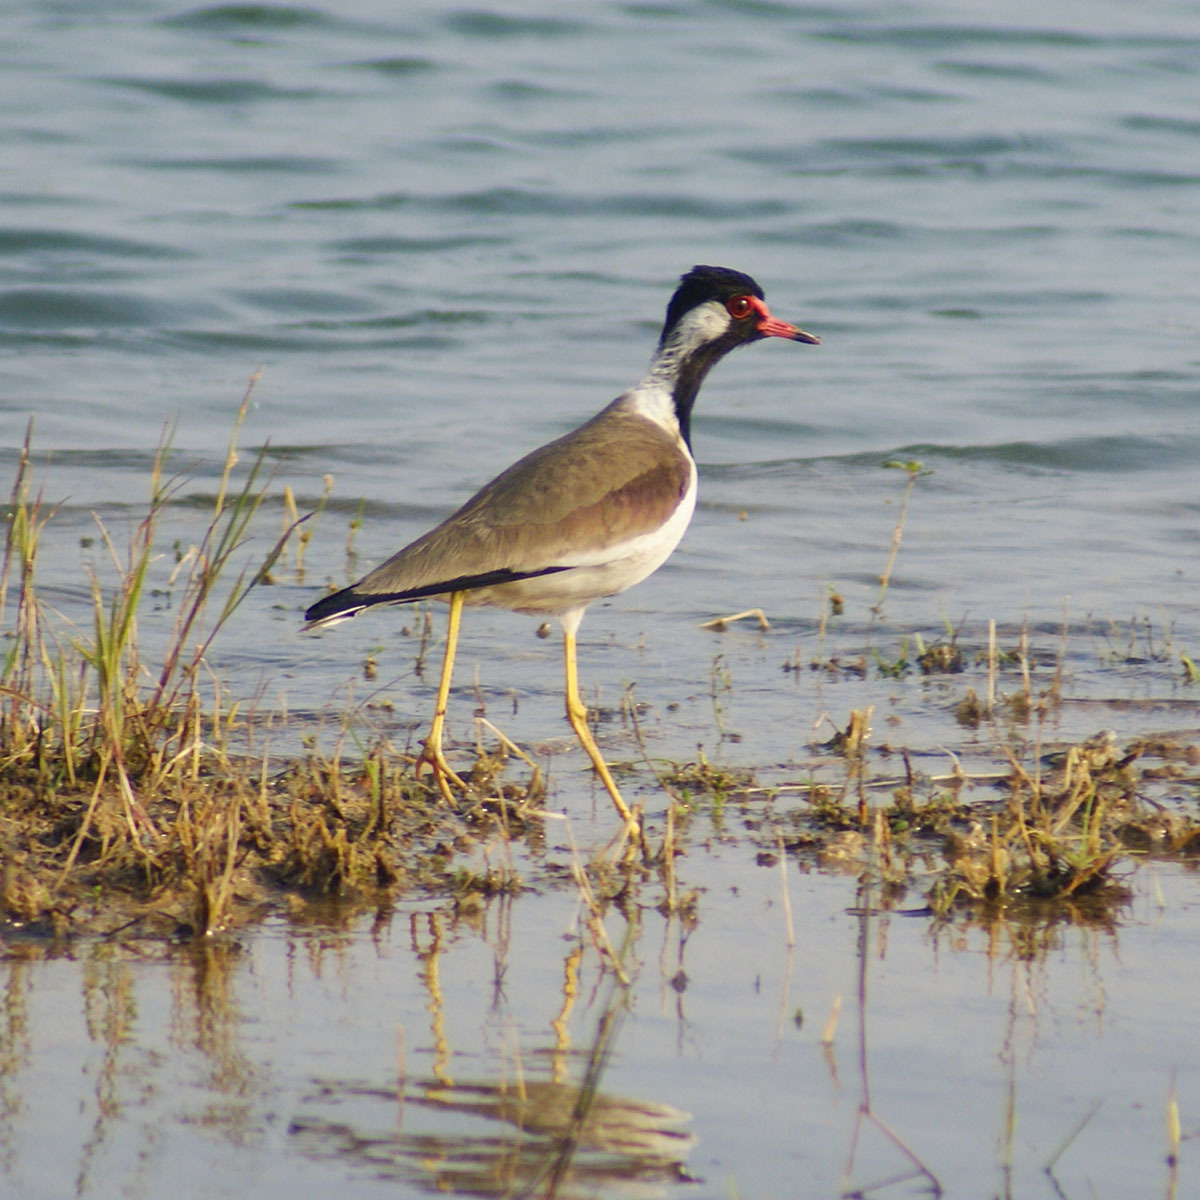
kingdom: Animalia
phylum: Chordata
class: Aves
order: Charadriiformes
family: Charadriidae
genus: Vanellus
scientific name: Vanellus indicus
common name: Red-wattled lapwing
